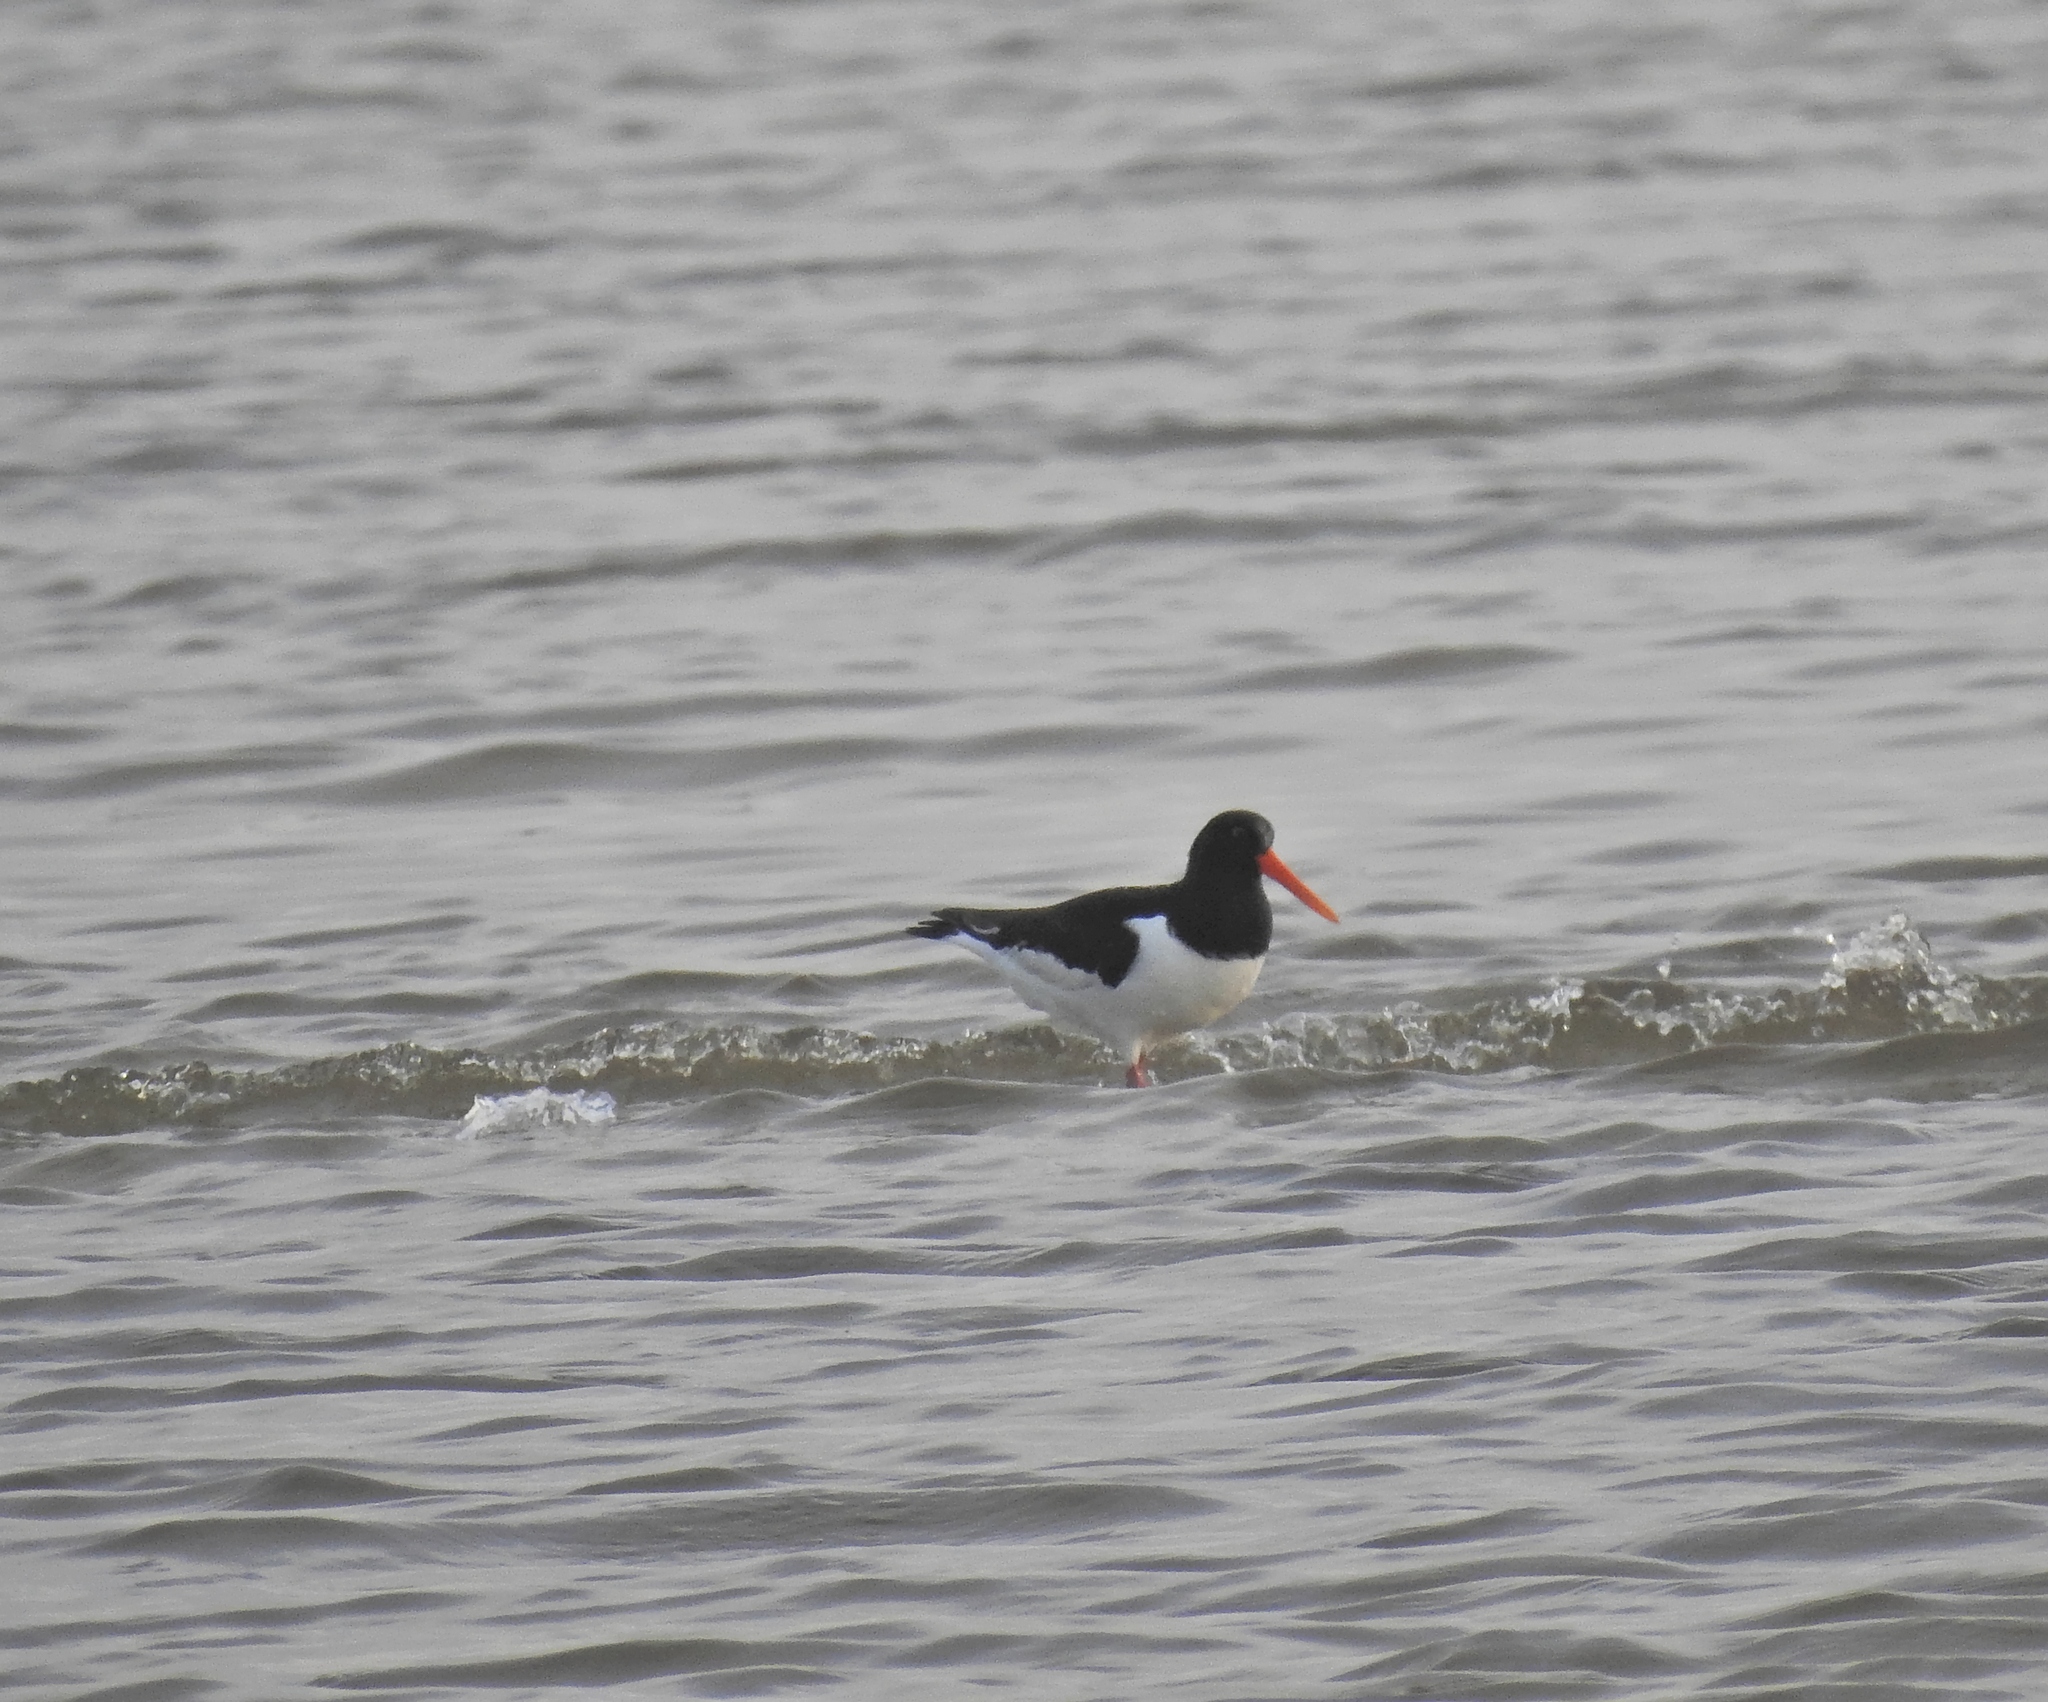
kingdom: Animalia
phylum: Chordata
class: Aves
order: Charadriiformes
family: Haematopodidae
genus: Haematopus
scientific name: Haematopus ostralegus
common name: Eurasian oystercatcher
